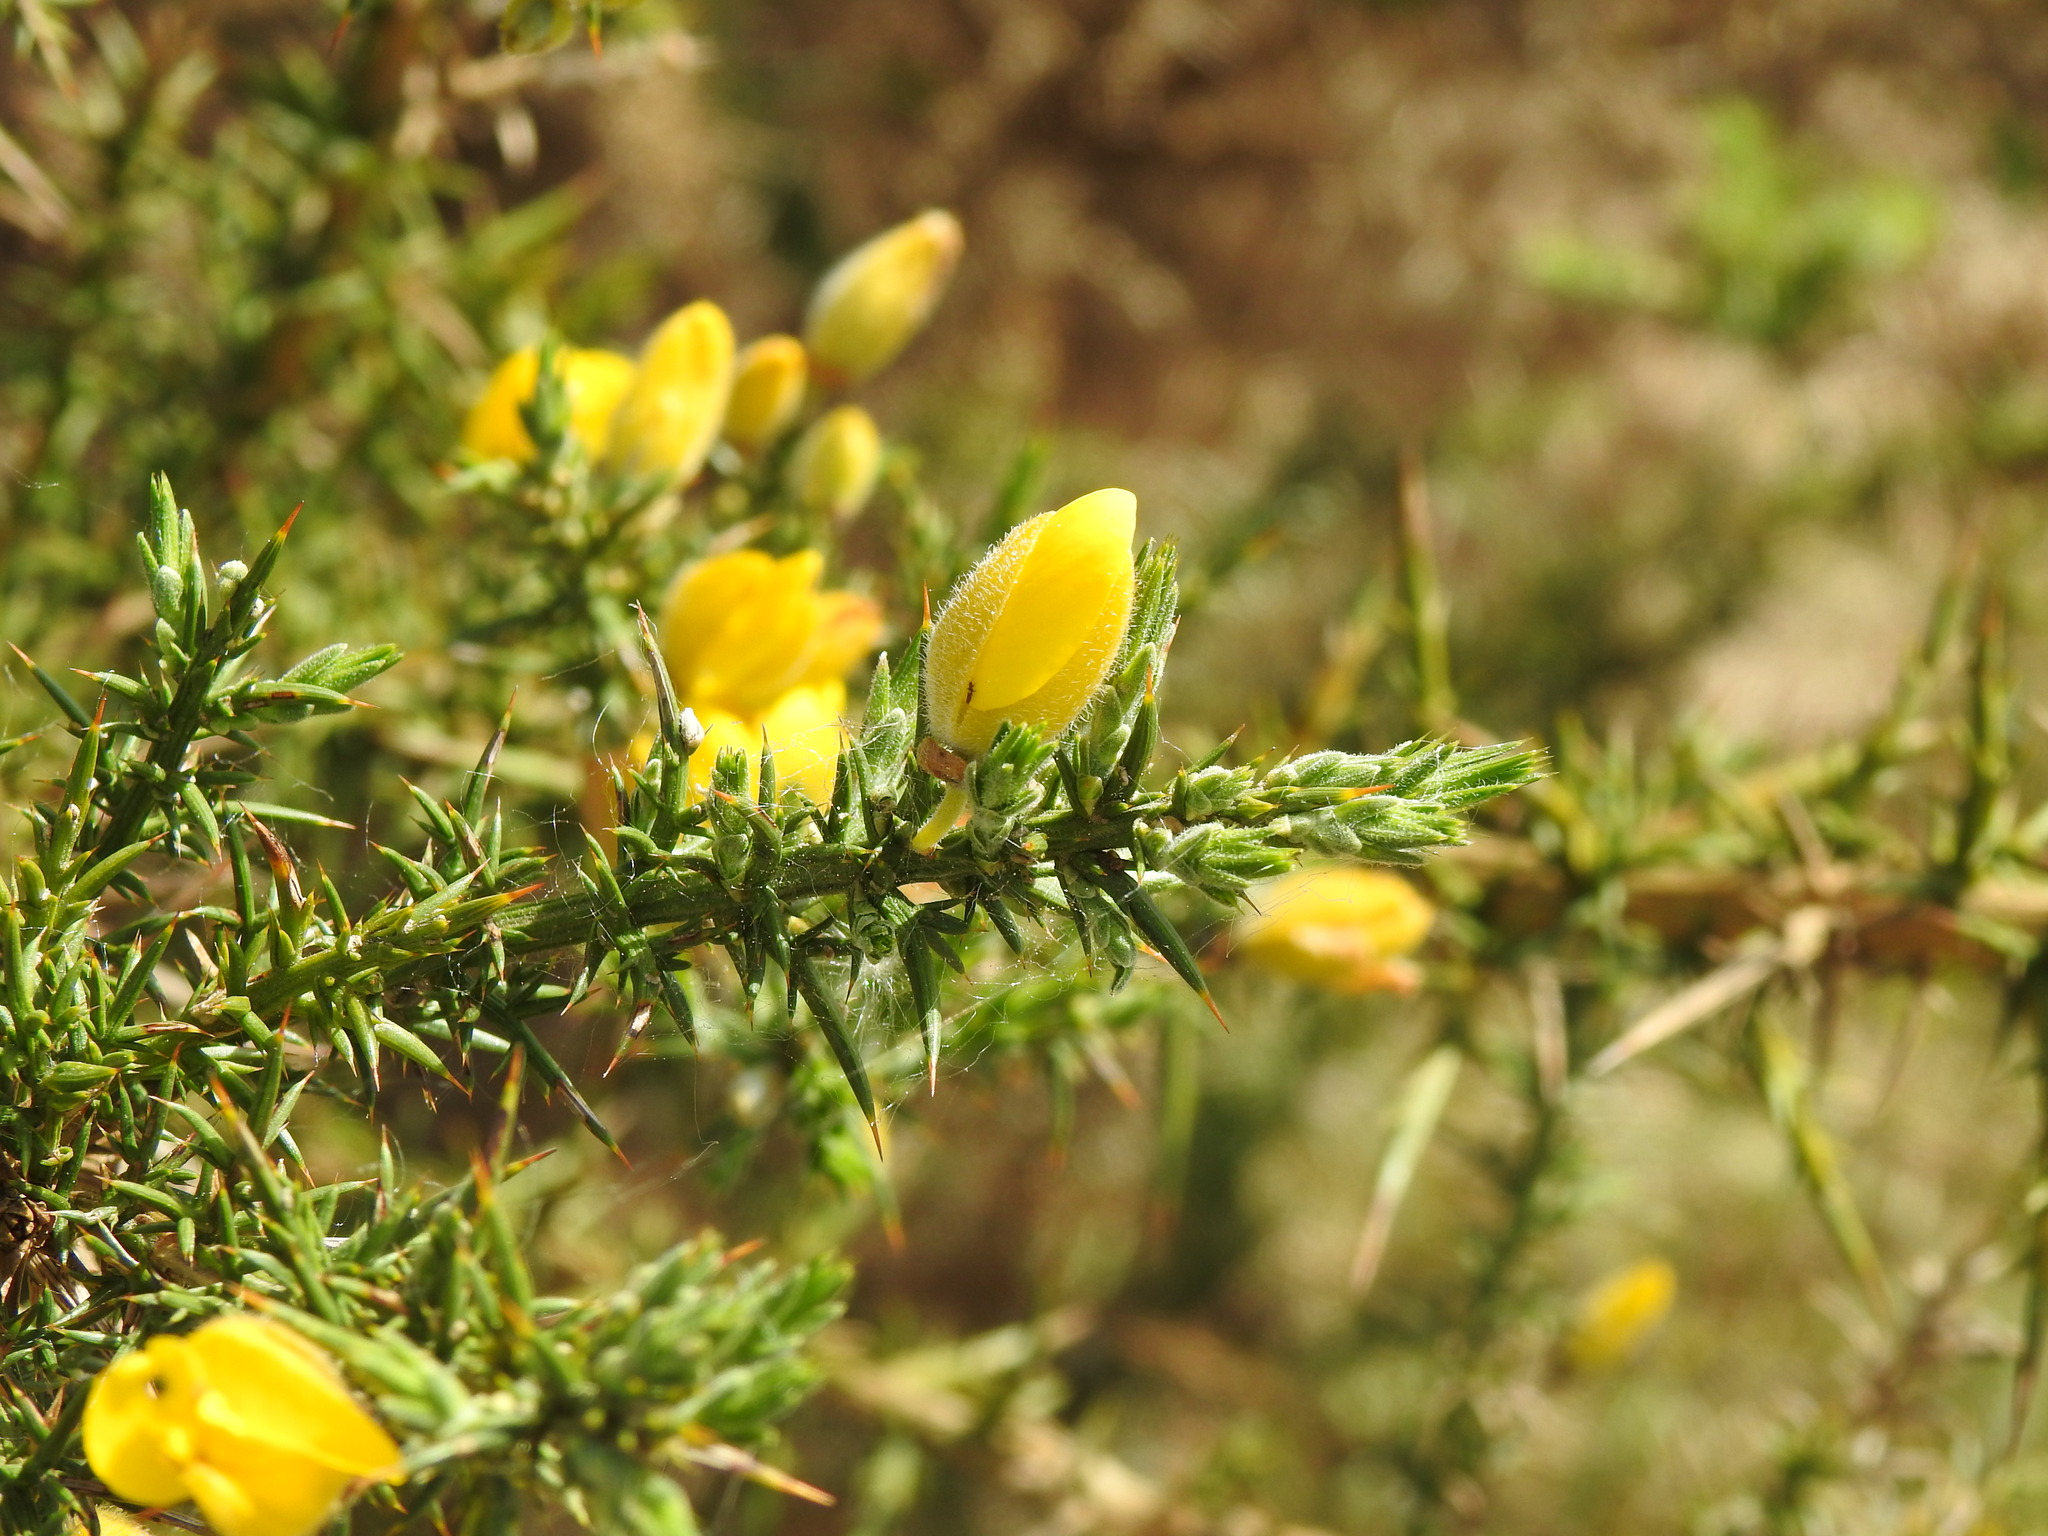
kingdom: Plantae
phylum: Tracheophyta
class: Magnoliopsida
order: Fabales
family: Fabaceae
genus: Ulex
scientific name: Ulex europaeus
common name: Common gorse
